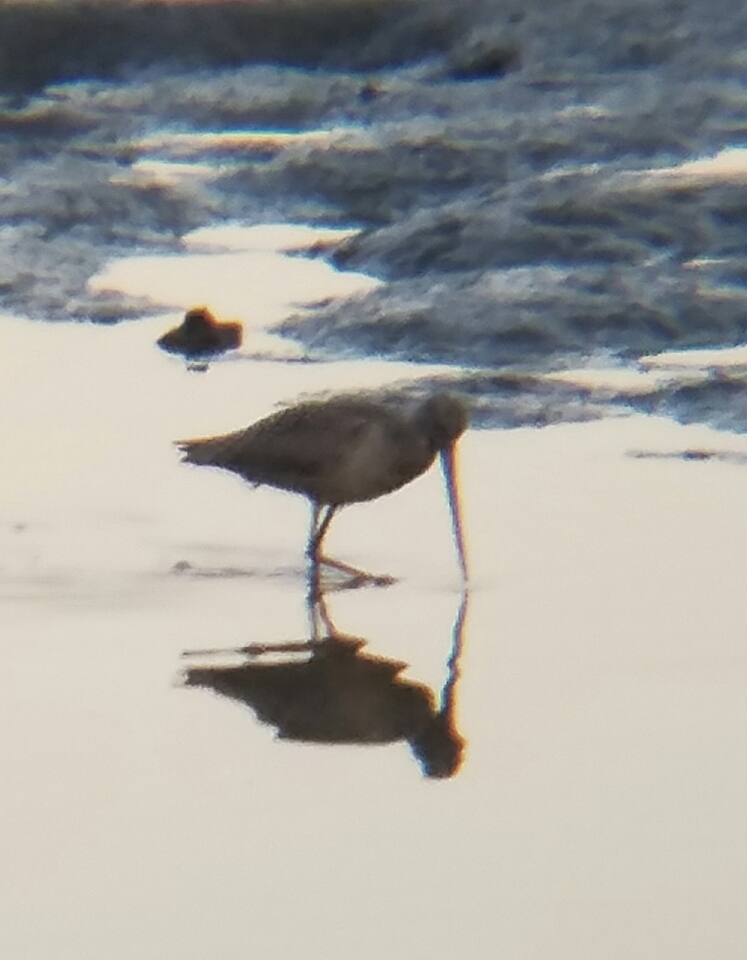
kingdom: Animalia
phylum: Chordata
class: Aves
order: Charadriiformes
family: Scolopacidae
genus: Limosa
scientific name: Limosa fedoa
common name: Marbled godwit
